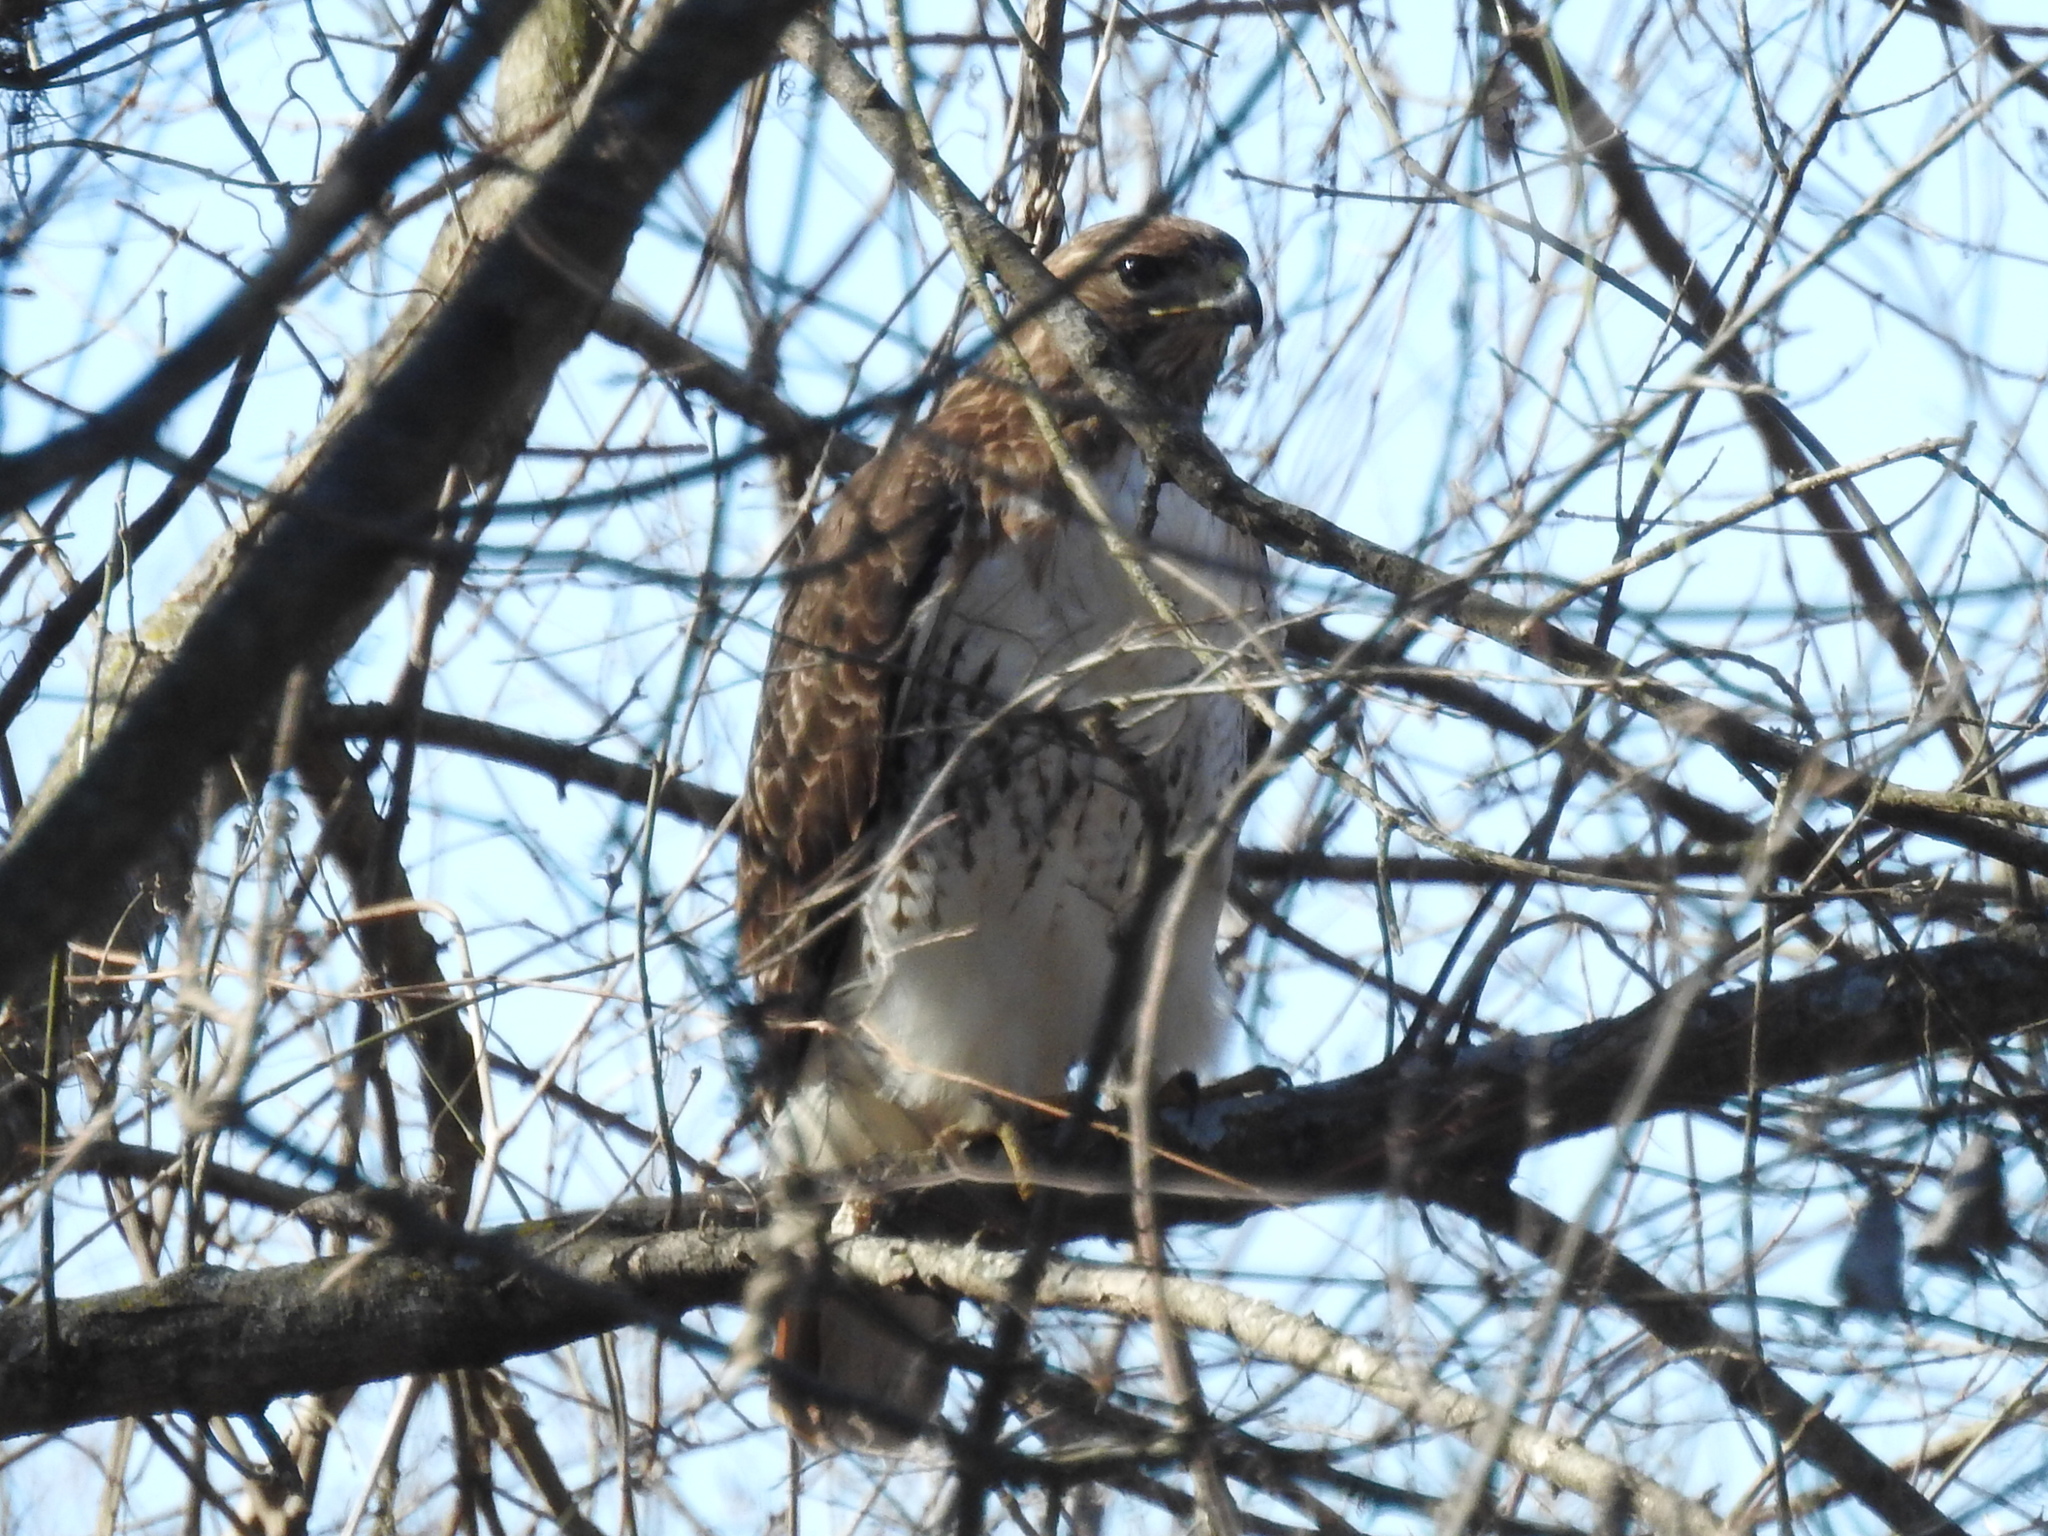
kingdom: Animalia
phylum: Chordata
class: Aves
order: Accipitriformes
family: Accipitridae
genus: Buteo
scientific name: Buteo jamaicensis
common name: Red-tailed hawk
